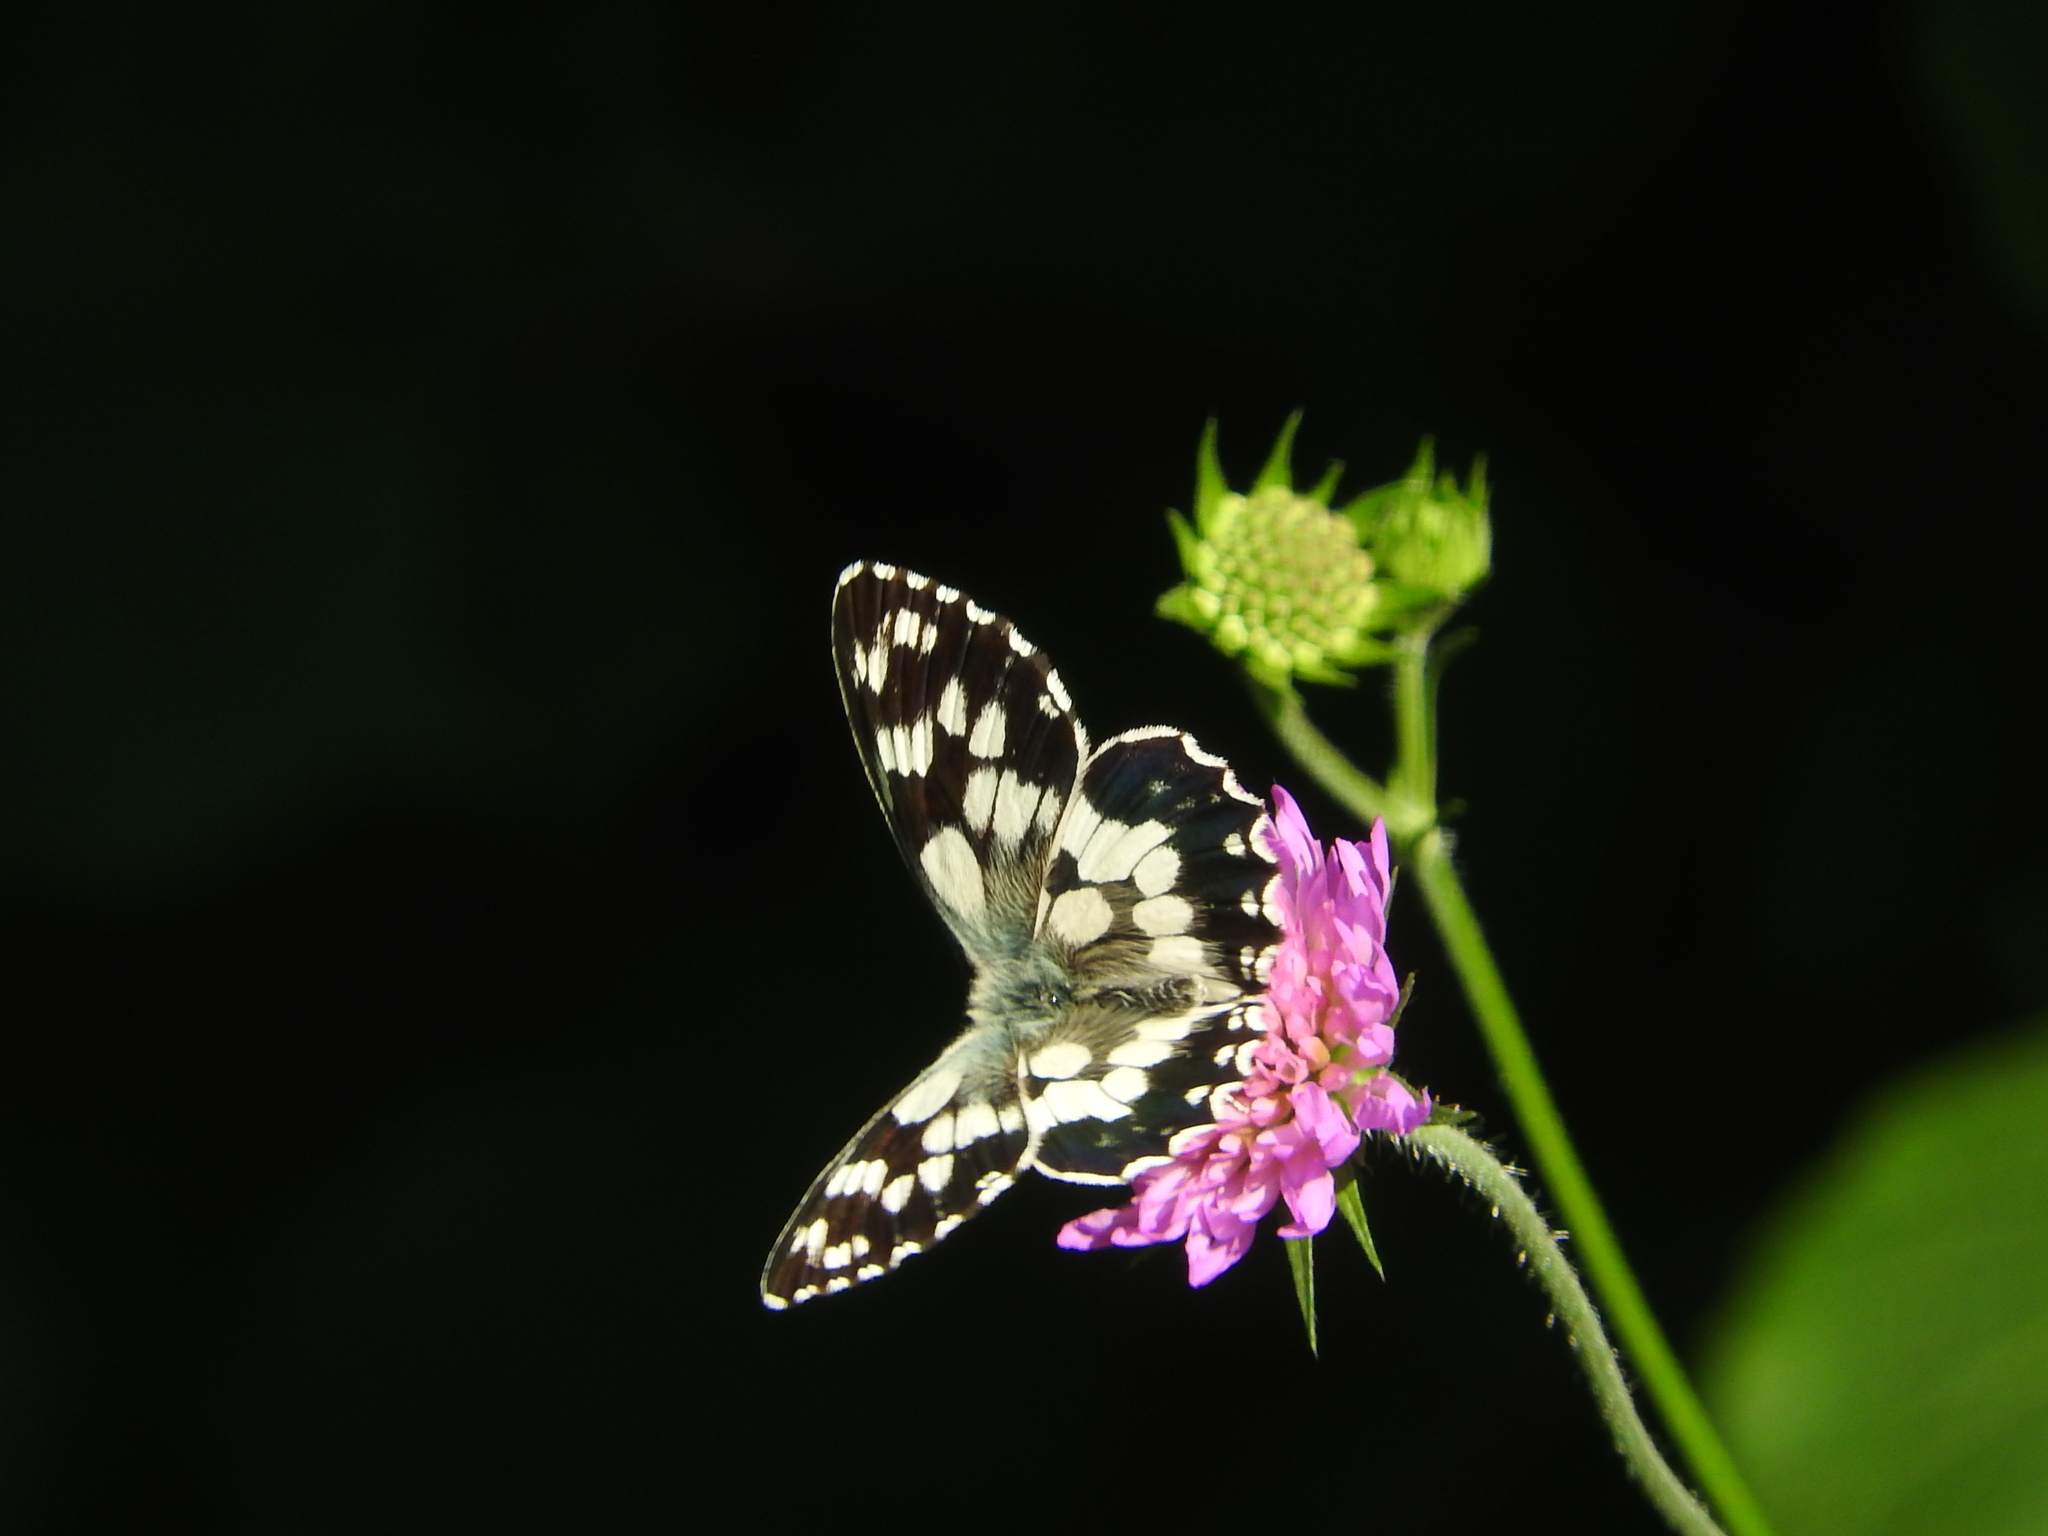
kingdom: Animalia
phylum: Arthropoda
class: Insecta
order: Lepidoptera
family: Nymphalidae
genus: Melanargia
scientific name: Melanargia galathea
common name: Marbled white
